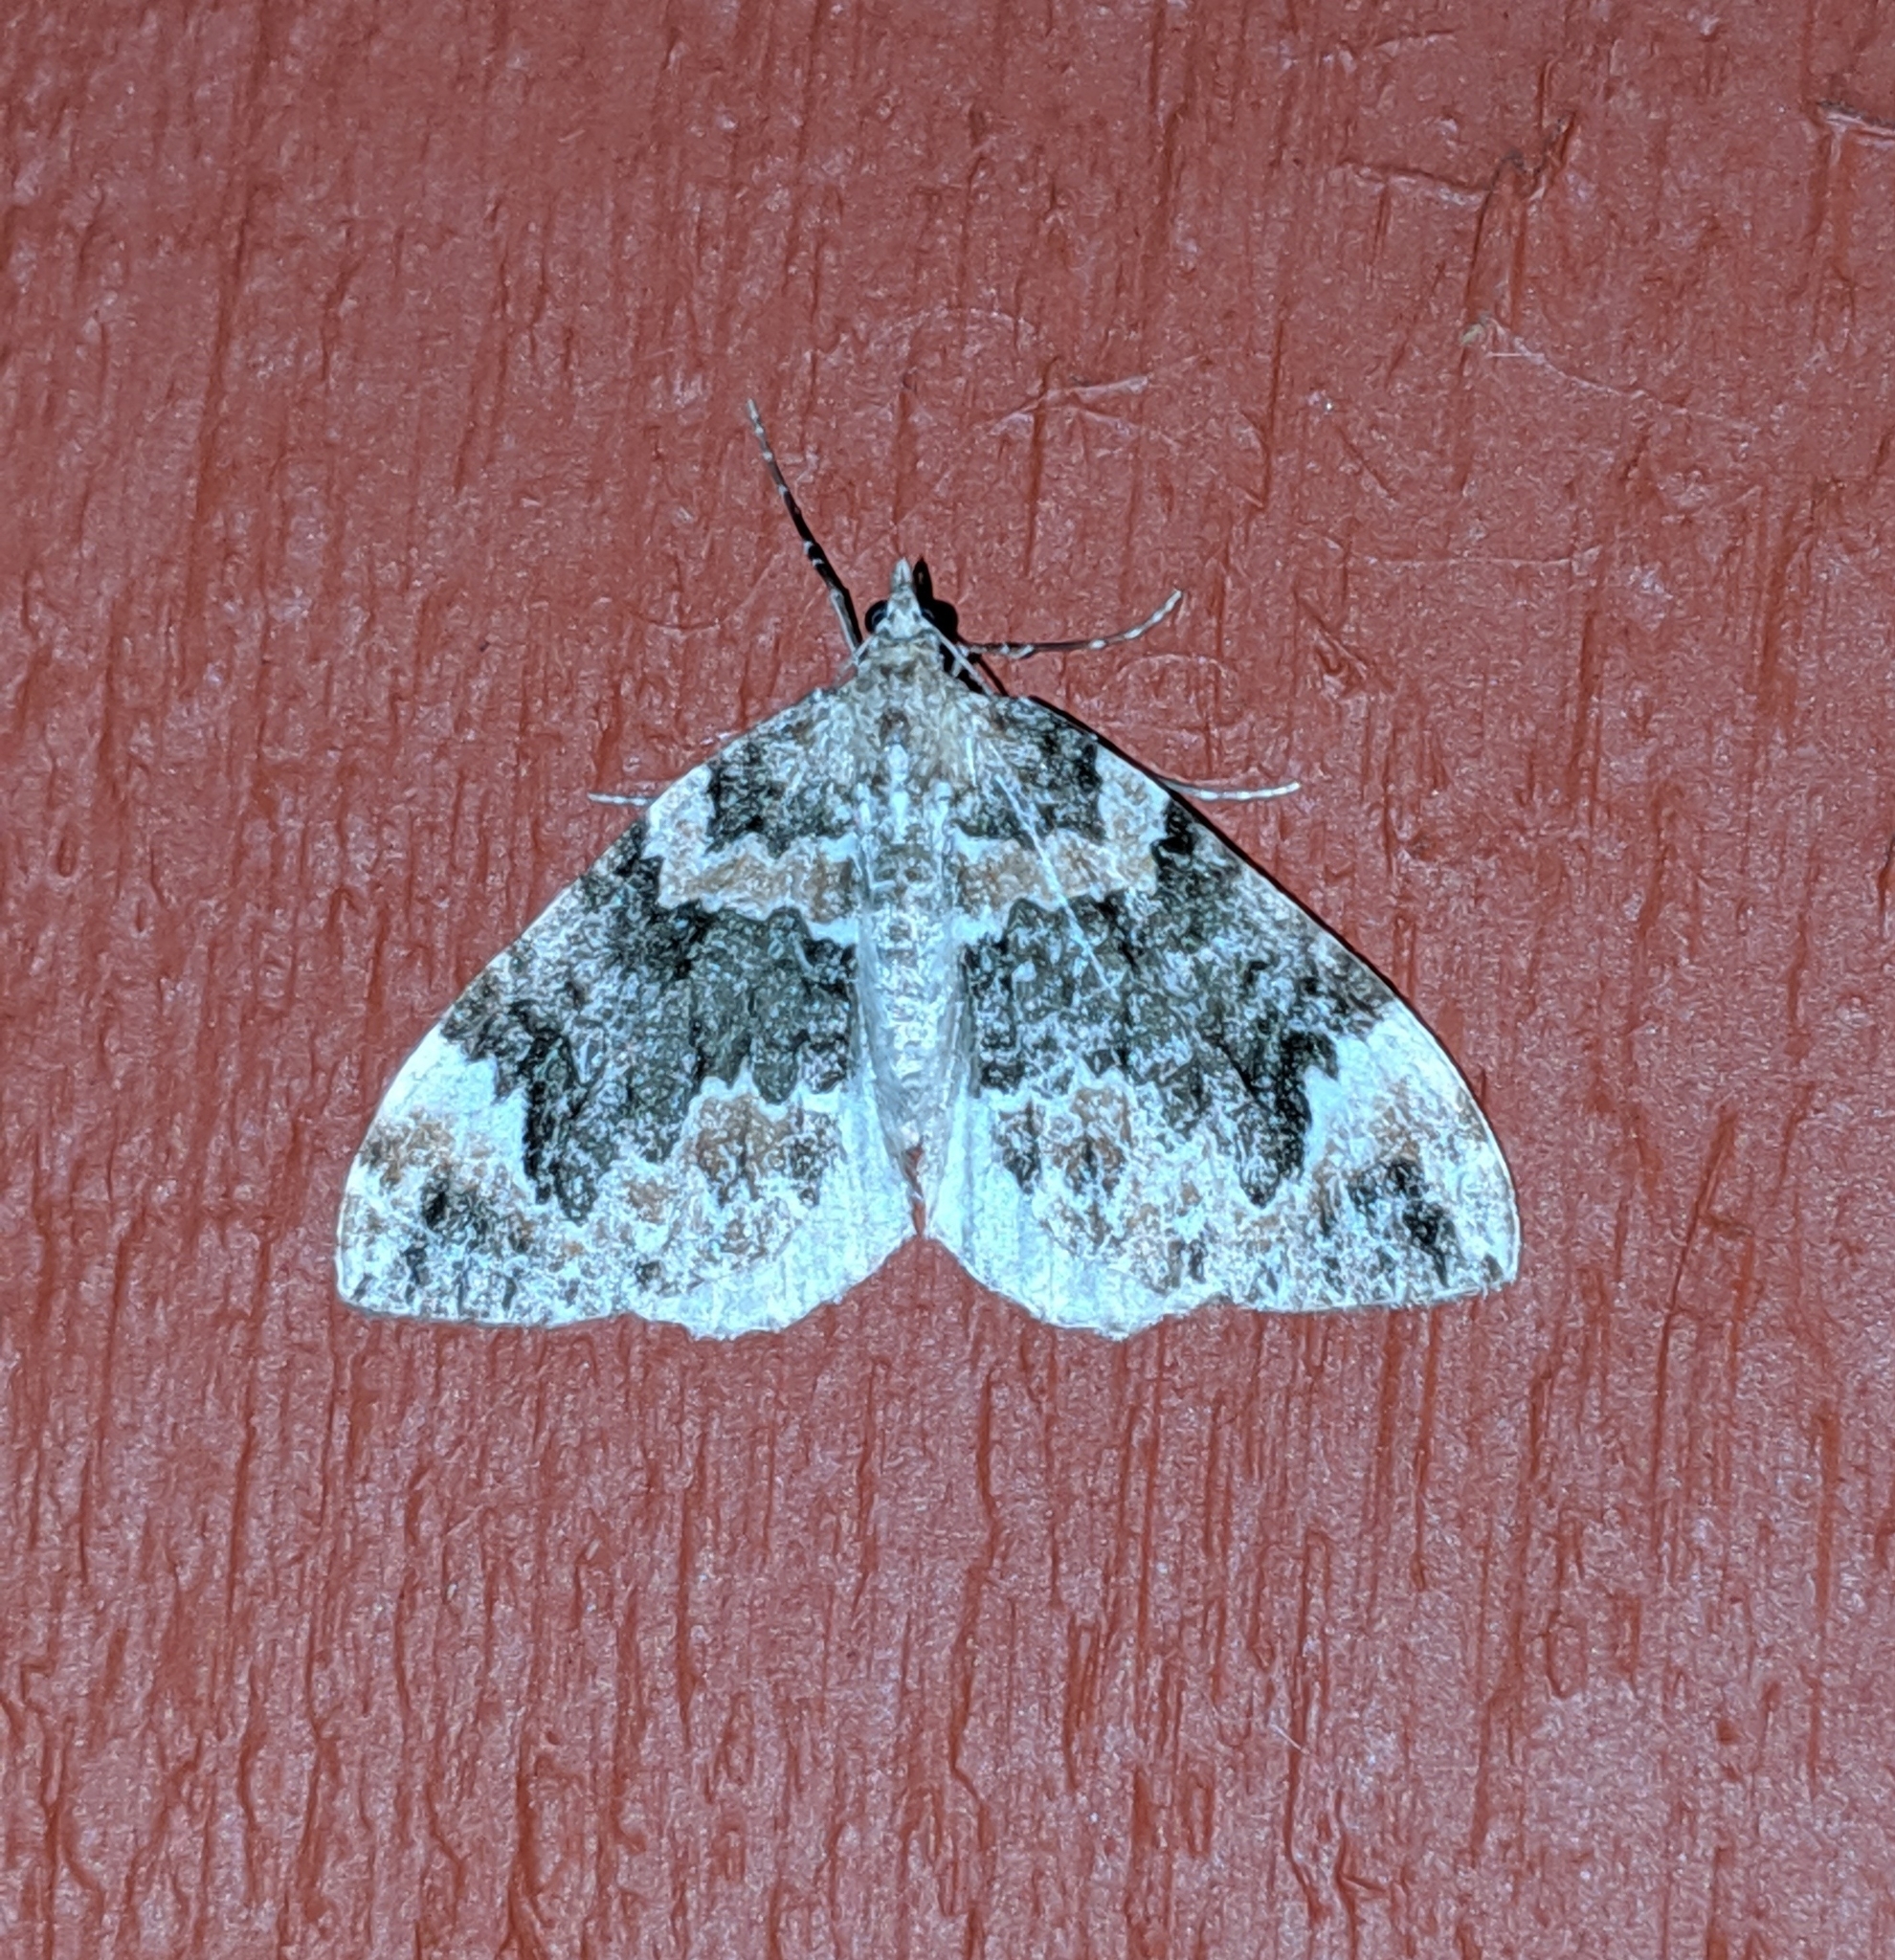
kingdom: Animalia
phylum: Arthropoda
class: Insecta
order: Lepidoptera
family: Geometridae
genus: Dysstroma
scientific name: Dysstroma citrata
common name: Dark marbled carpet
